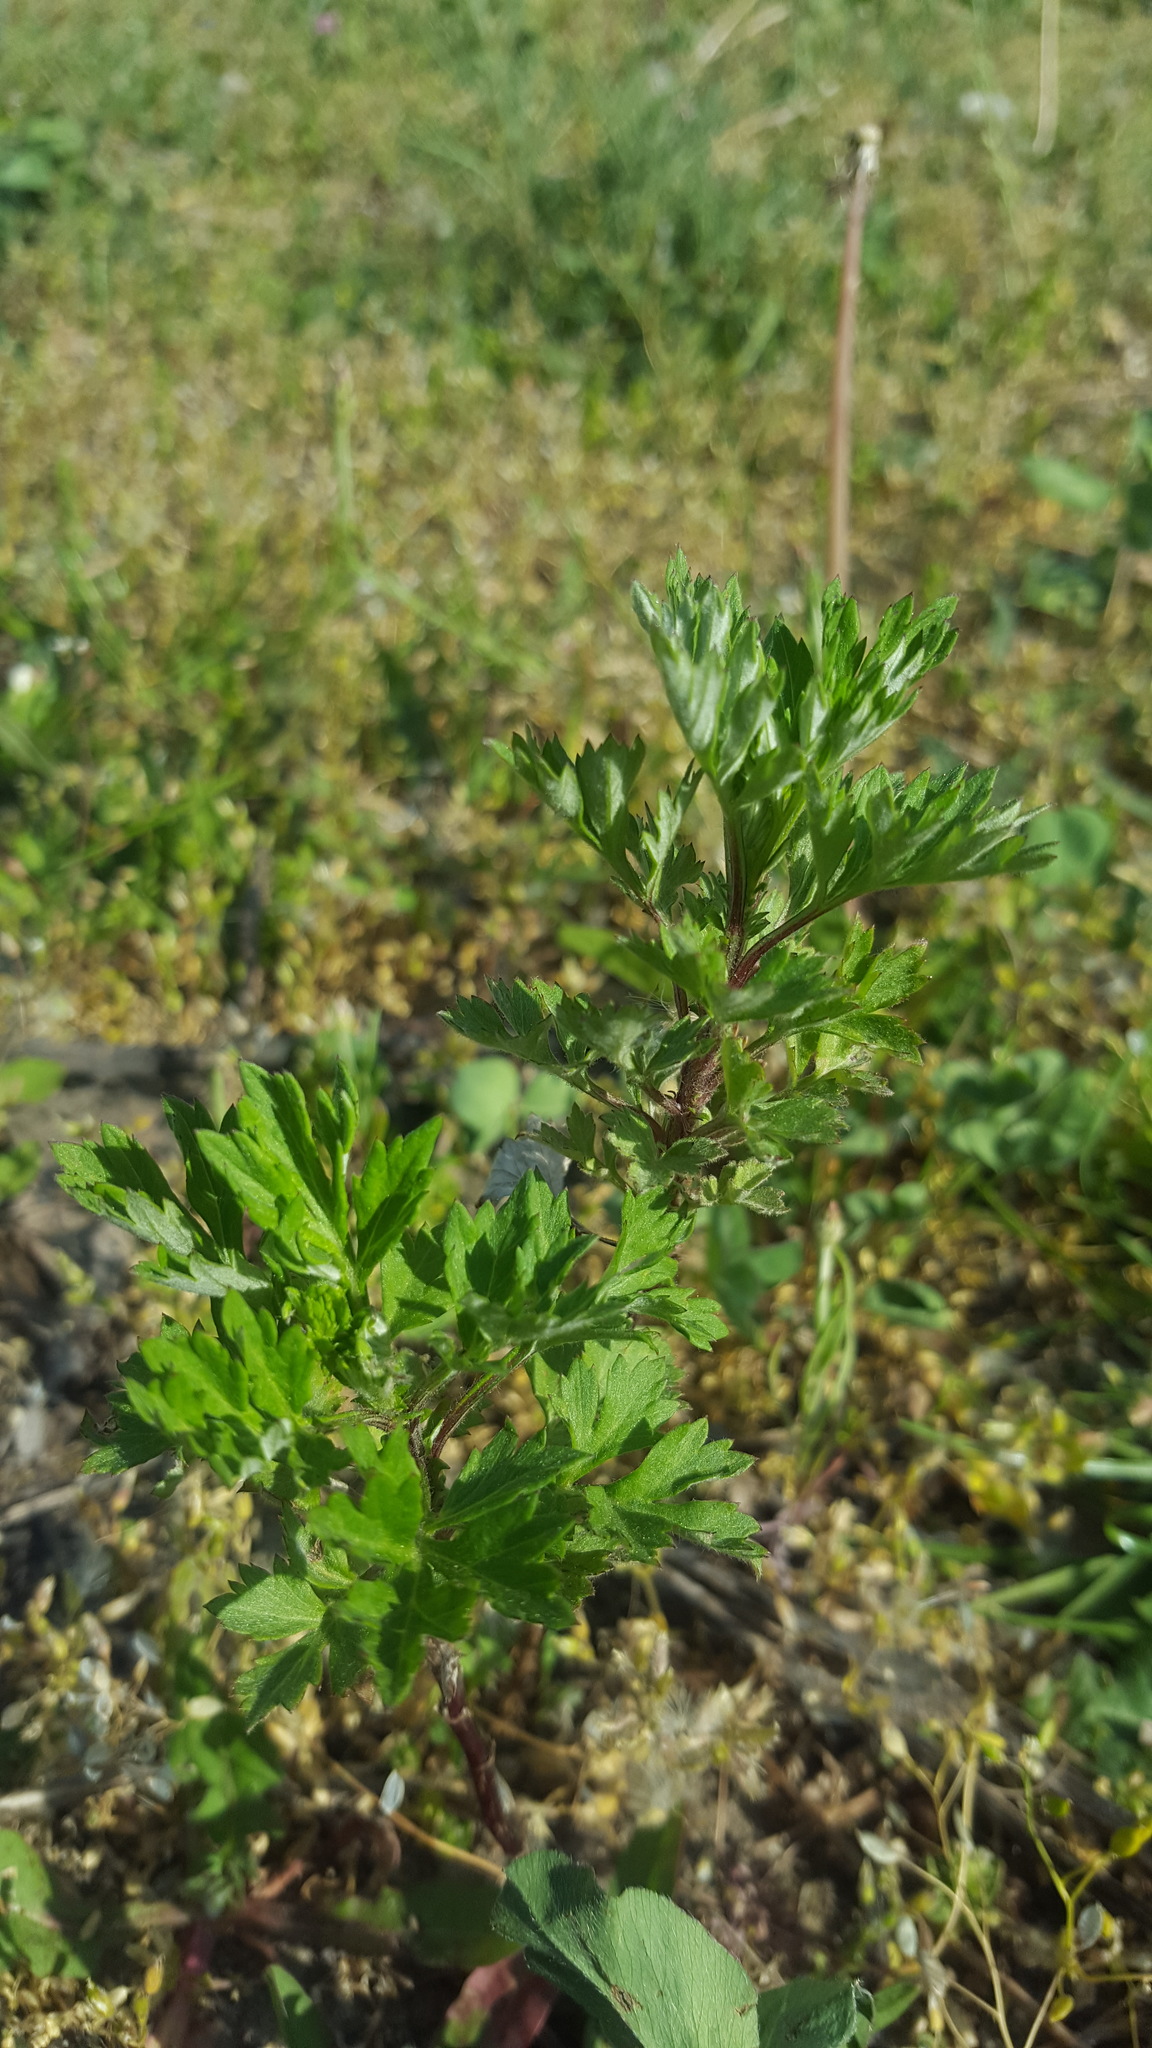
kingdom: Plantae
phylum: Tracheophyta
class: Magnoliopsida
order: Asterales
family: Asteraceae
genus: Artemisia
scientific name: Artemisia vulgaris
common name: Mugwort
